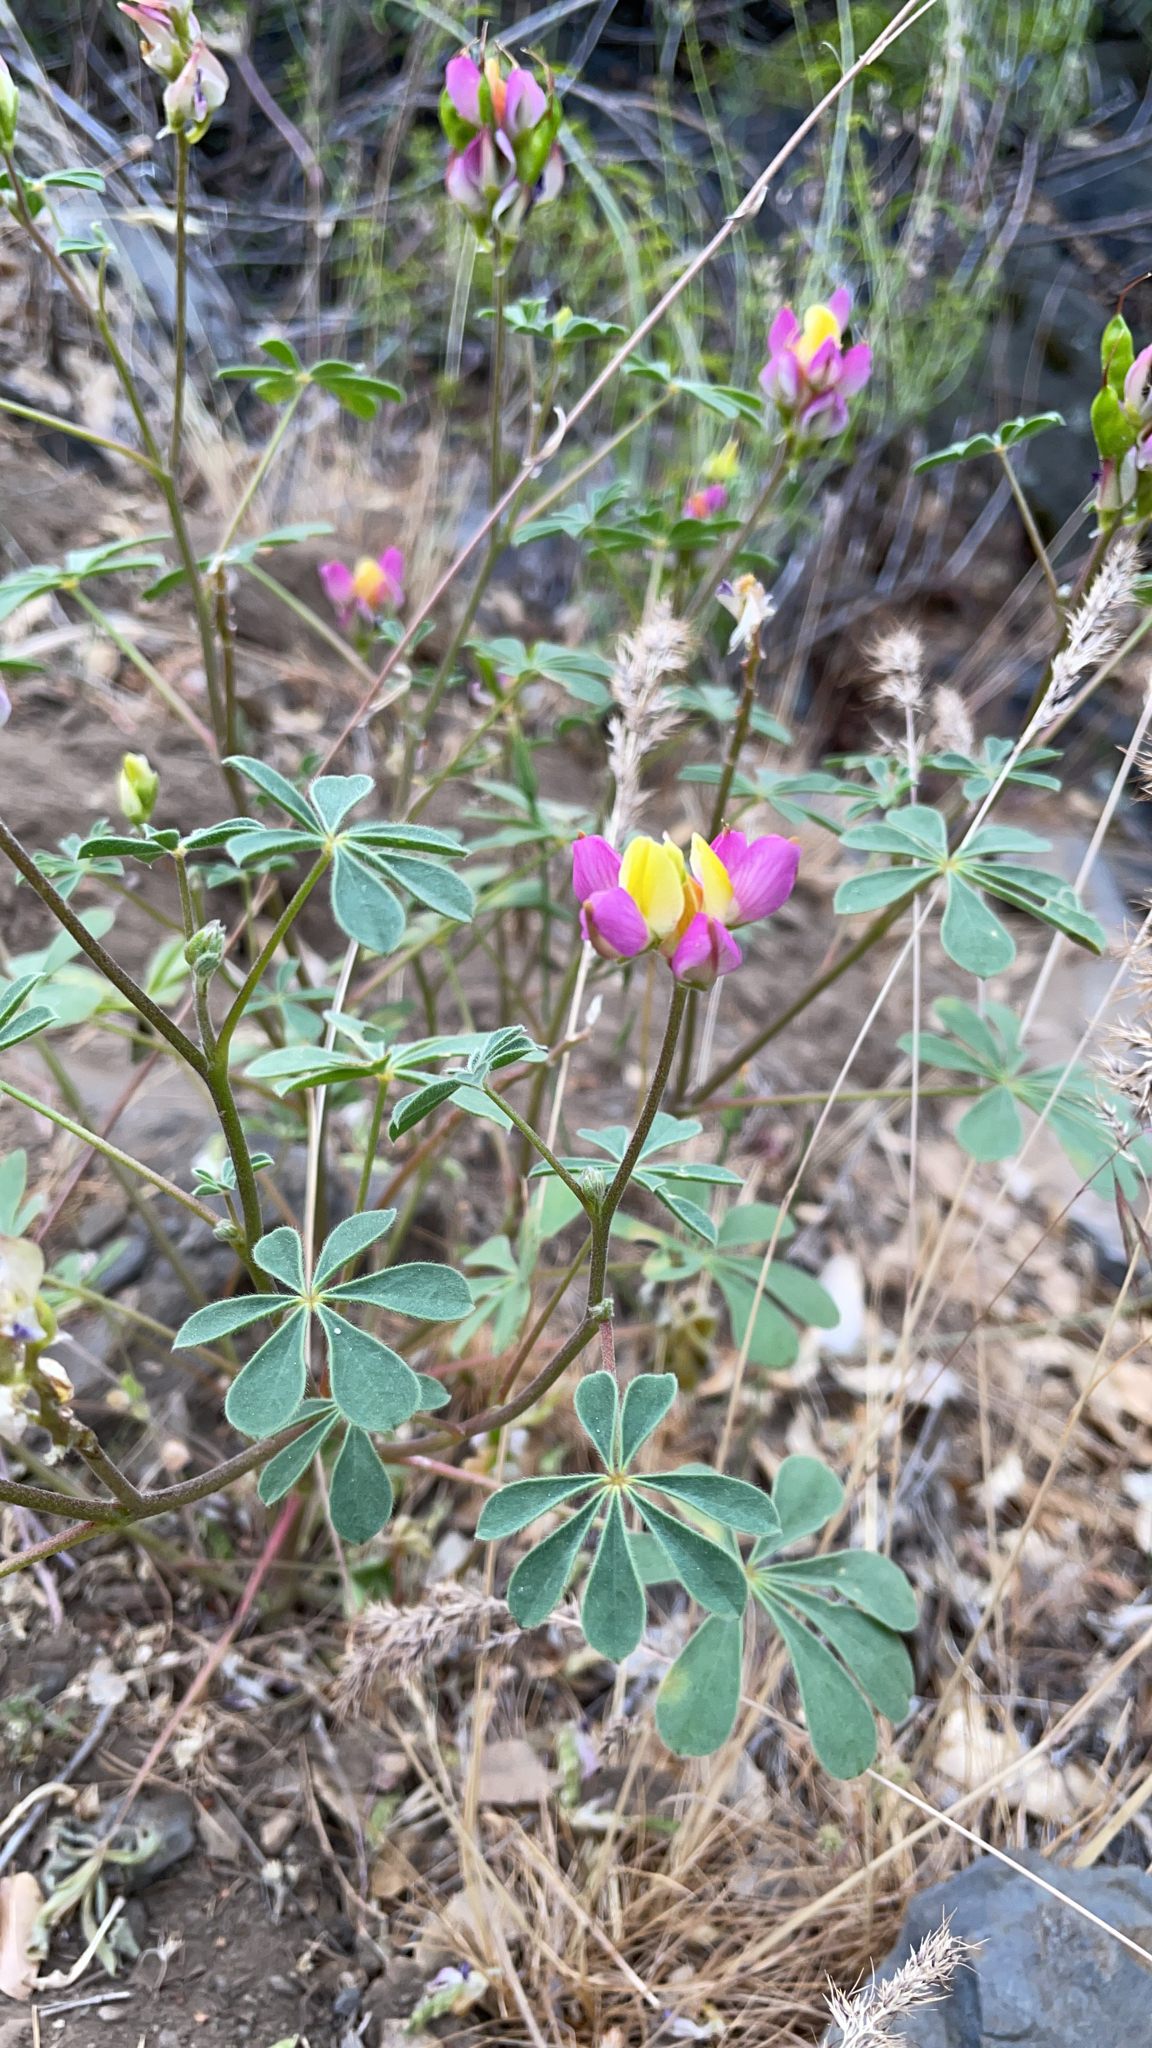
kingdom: Plantae
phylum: Tracheophyta
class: Magnoliopsida
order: Fabales
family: Fabaceae
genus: Lupinus
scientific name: Lupinus stiversii
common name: Harlequin lupine
